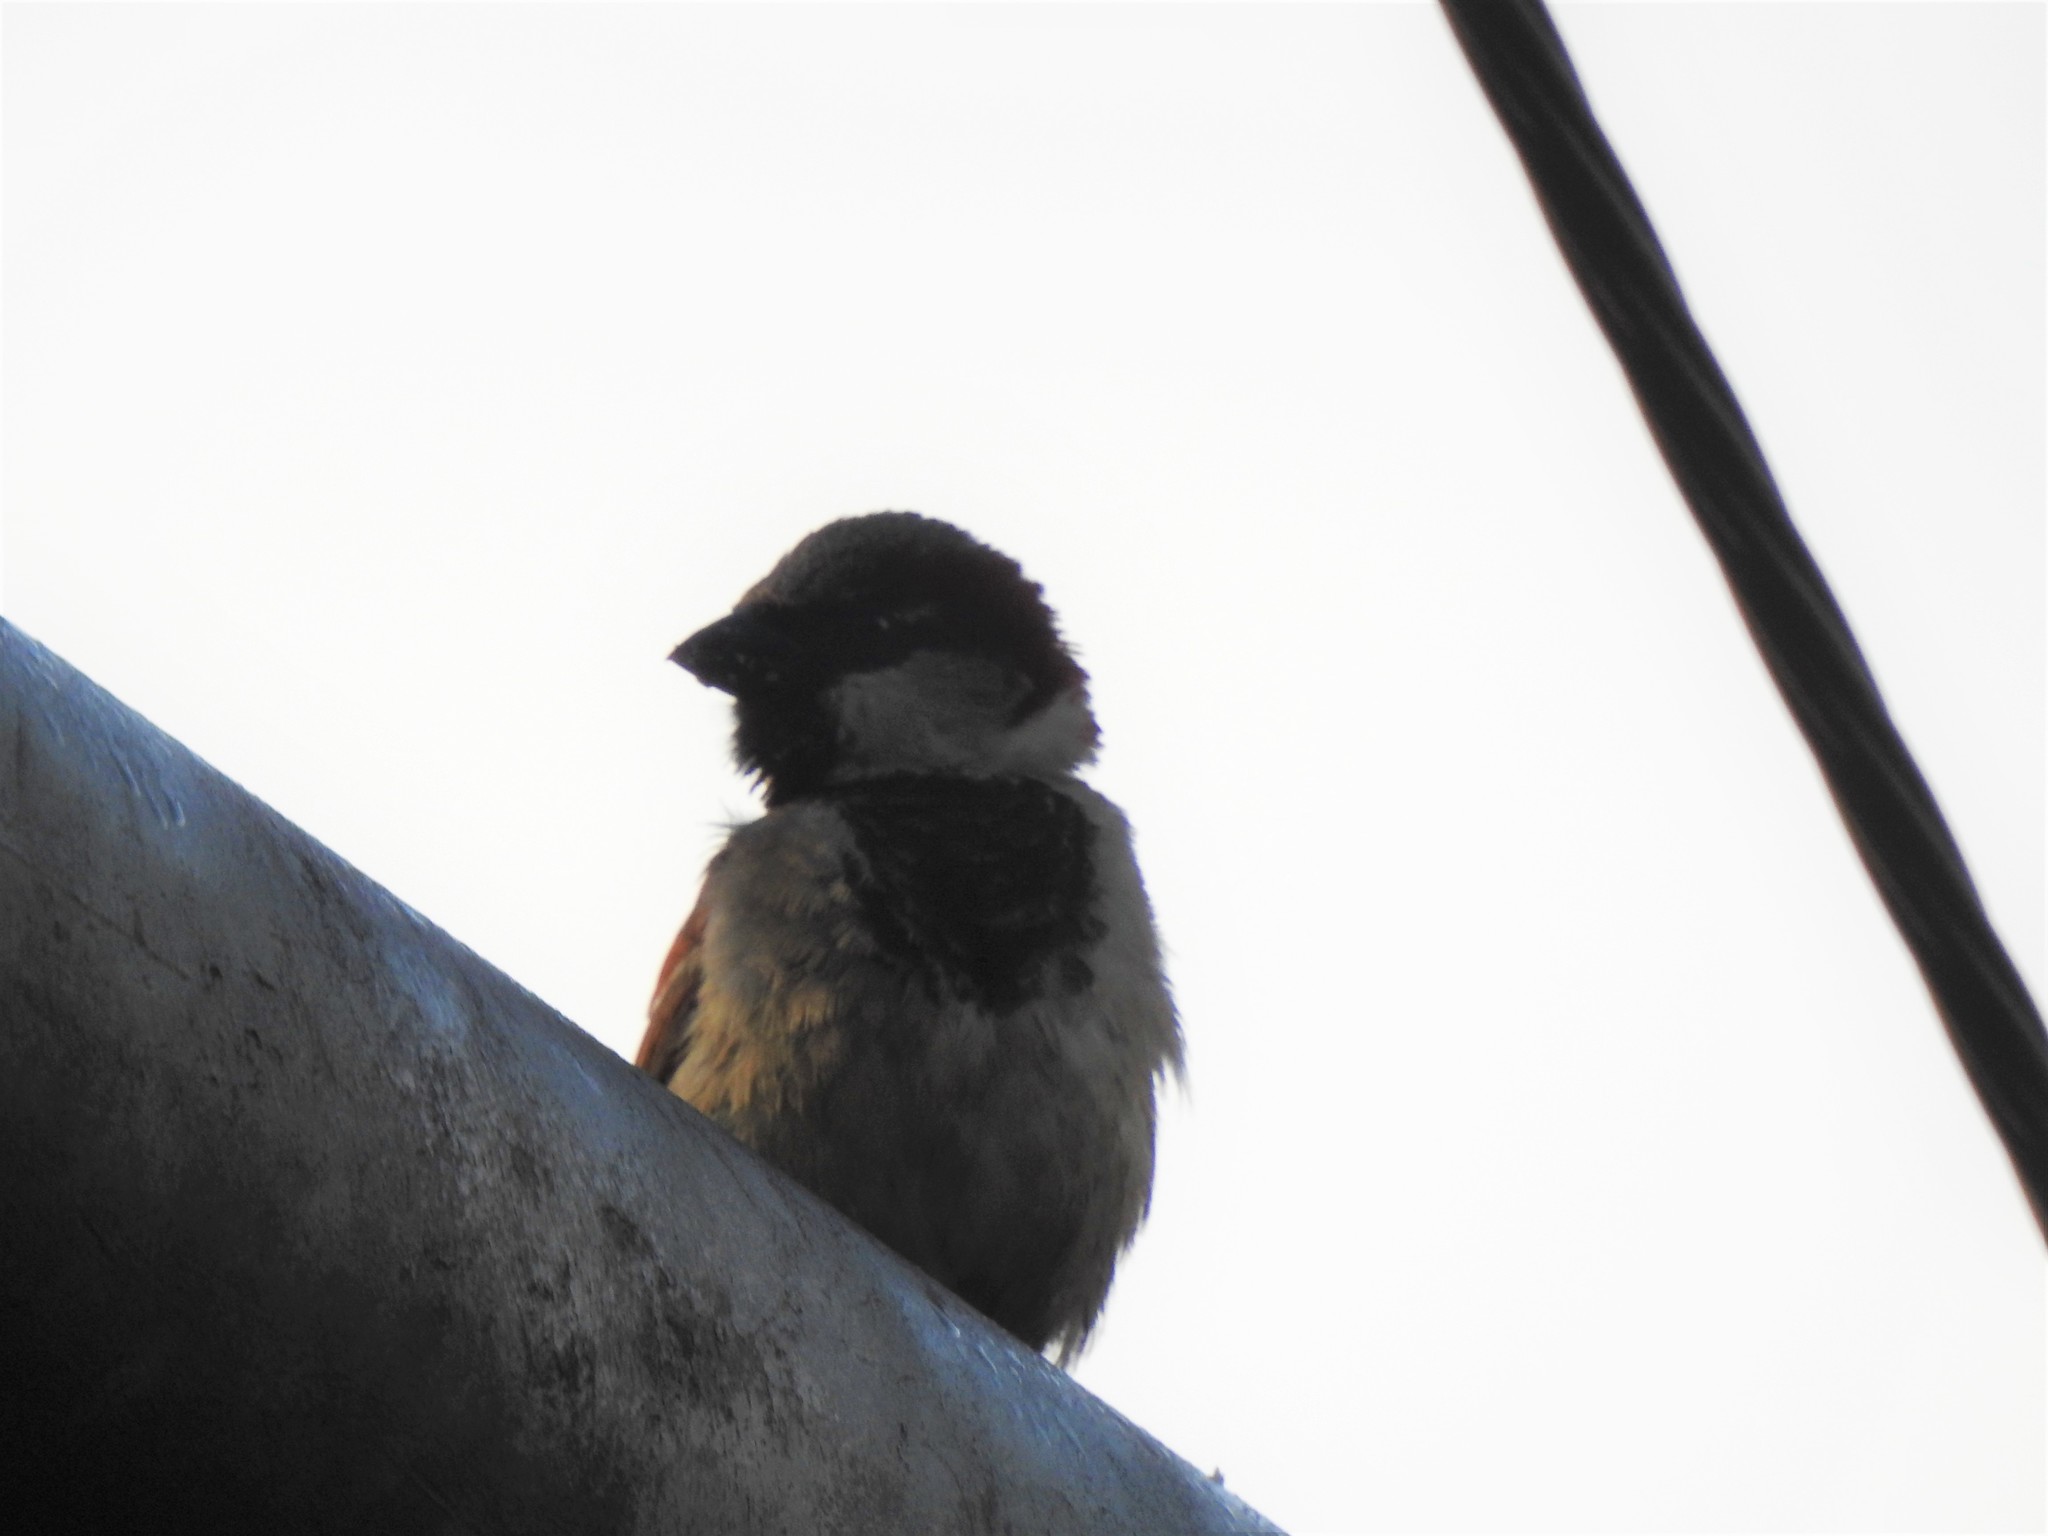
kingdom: Animalia
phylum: Chordata
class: Aves
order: Passeriformes
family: Passeridae
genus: Passer
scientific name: Passer domesticus
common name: House sparrow
